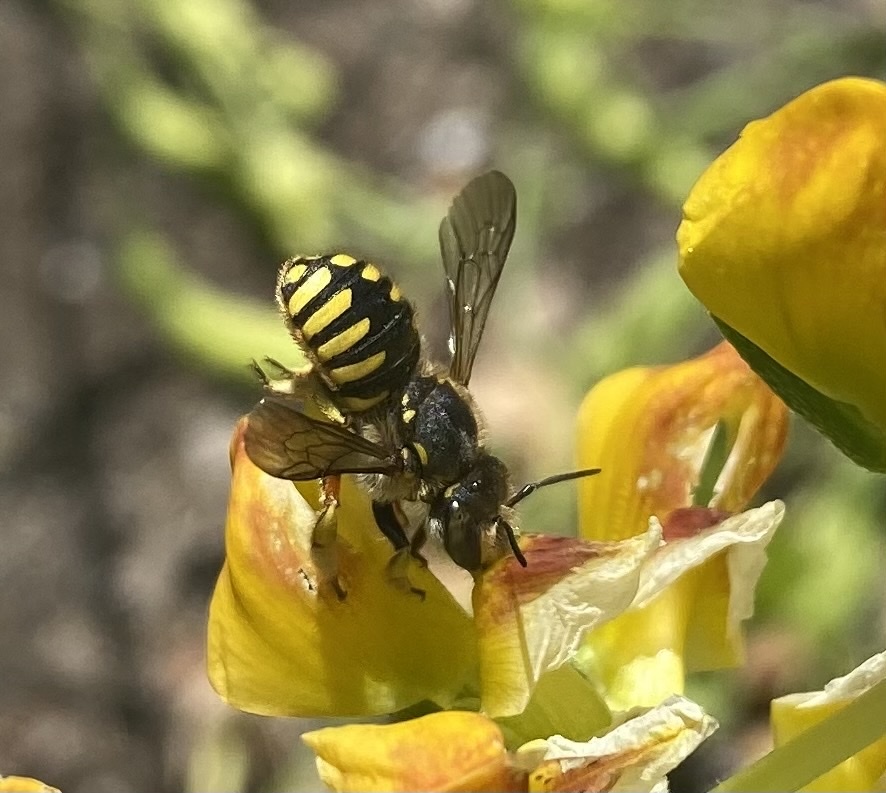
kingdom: Animalia
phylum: Arthropoda
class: Insecta
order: Hymenoptera
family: Megachilidae
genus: Anthidium
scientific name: Anthidium manicatum
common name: Wool carder bee
